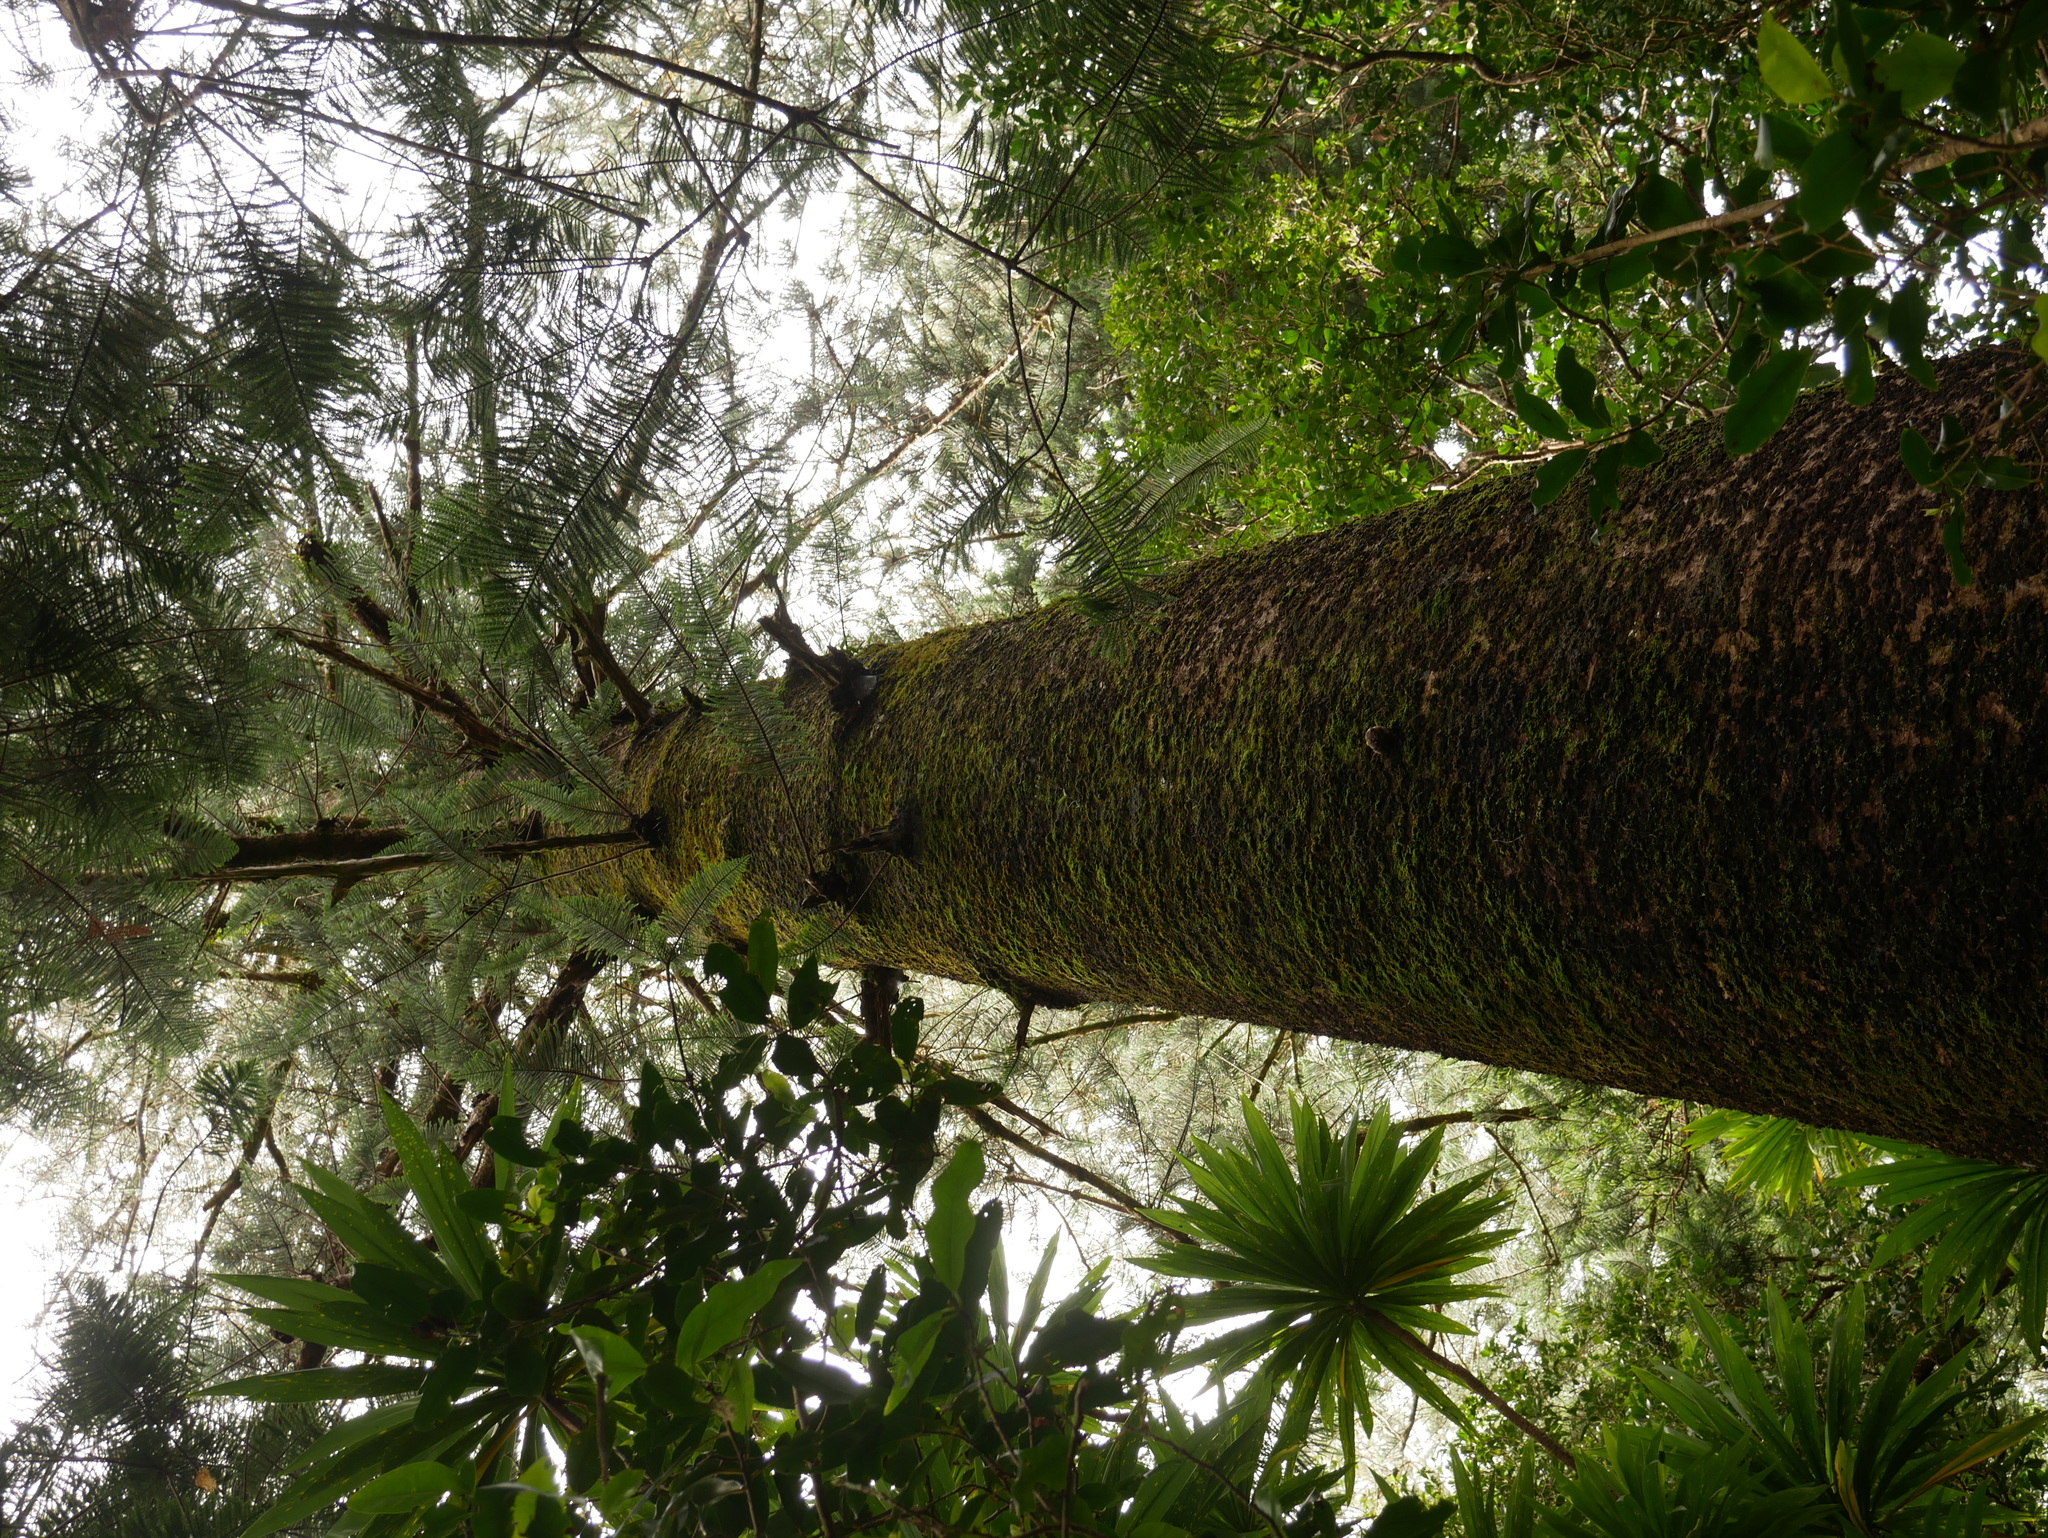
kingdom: Plantae
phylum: Tracheophyta
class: Pinopsida
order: Pinales
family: Araucariaceae
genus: Araucaria
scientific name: Araucaria heterophylla
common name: Norfolk island pine
